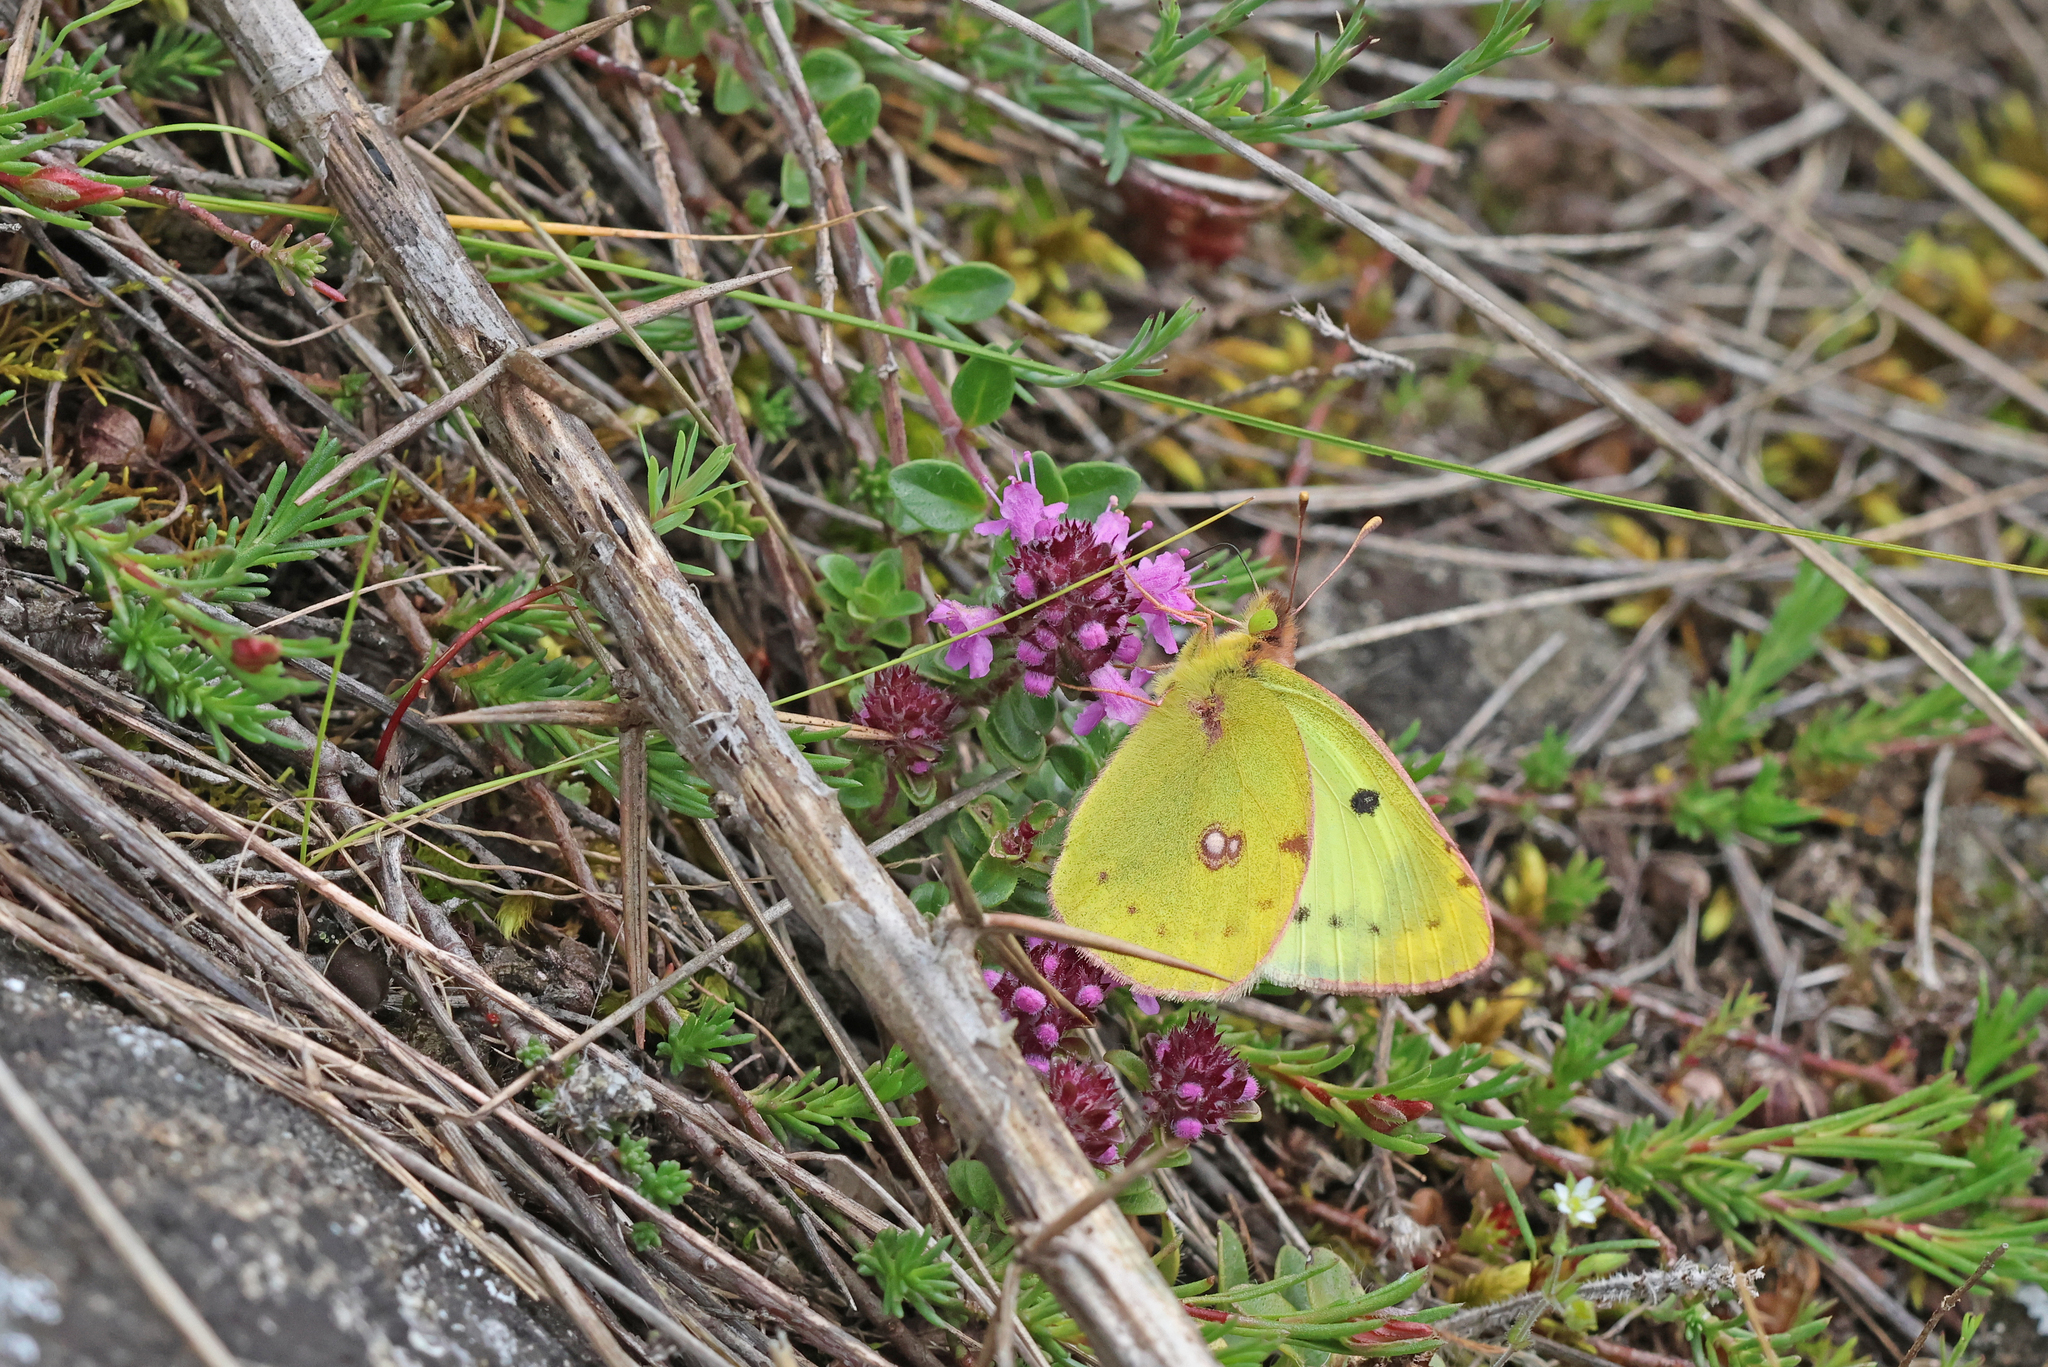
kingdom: Animalia
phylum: Arthropoda
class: Insecta
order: Lepidoptera
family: Pieridae
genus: Colias
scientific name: Colias croceus
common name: Clouded yellow
